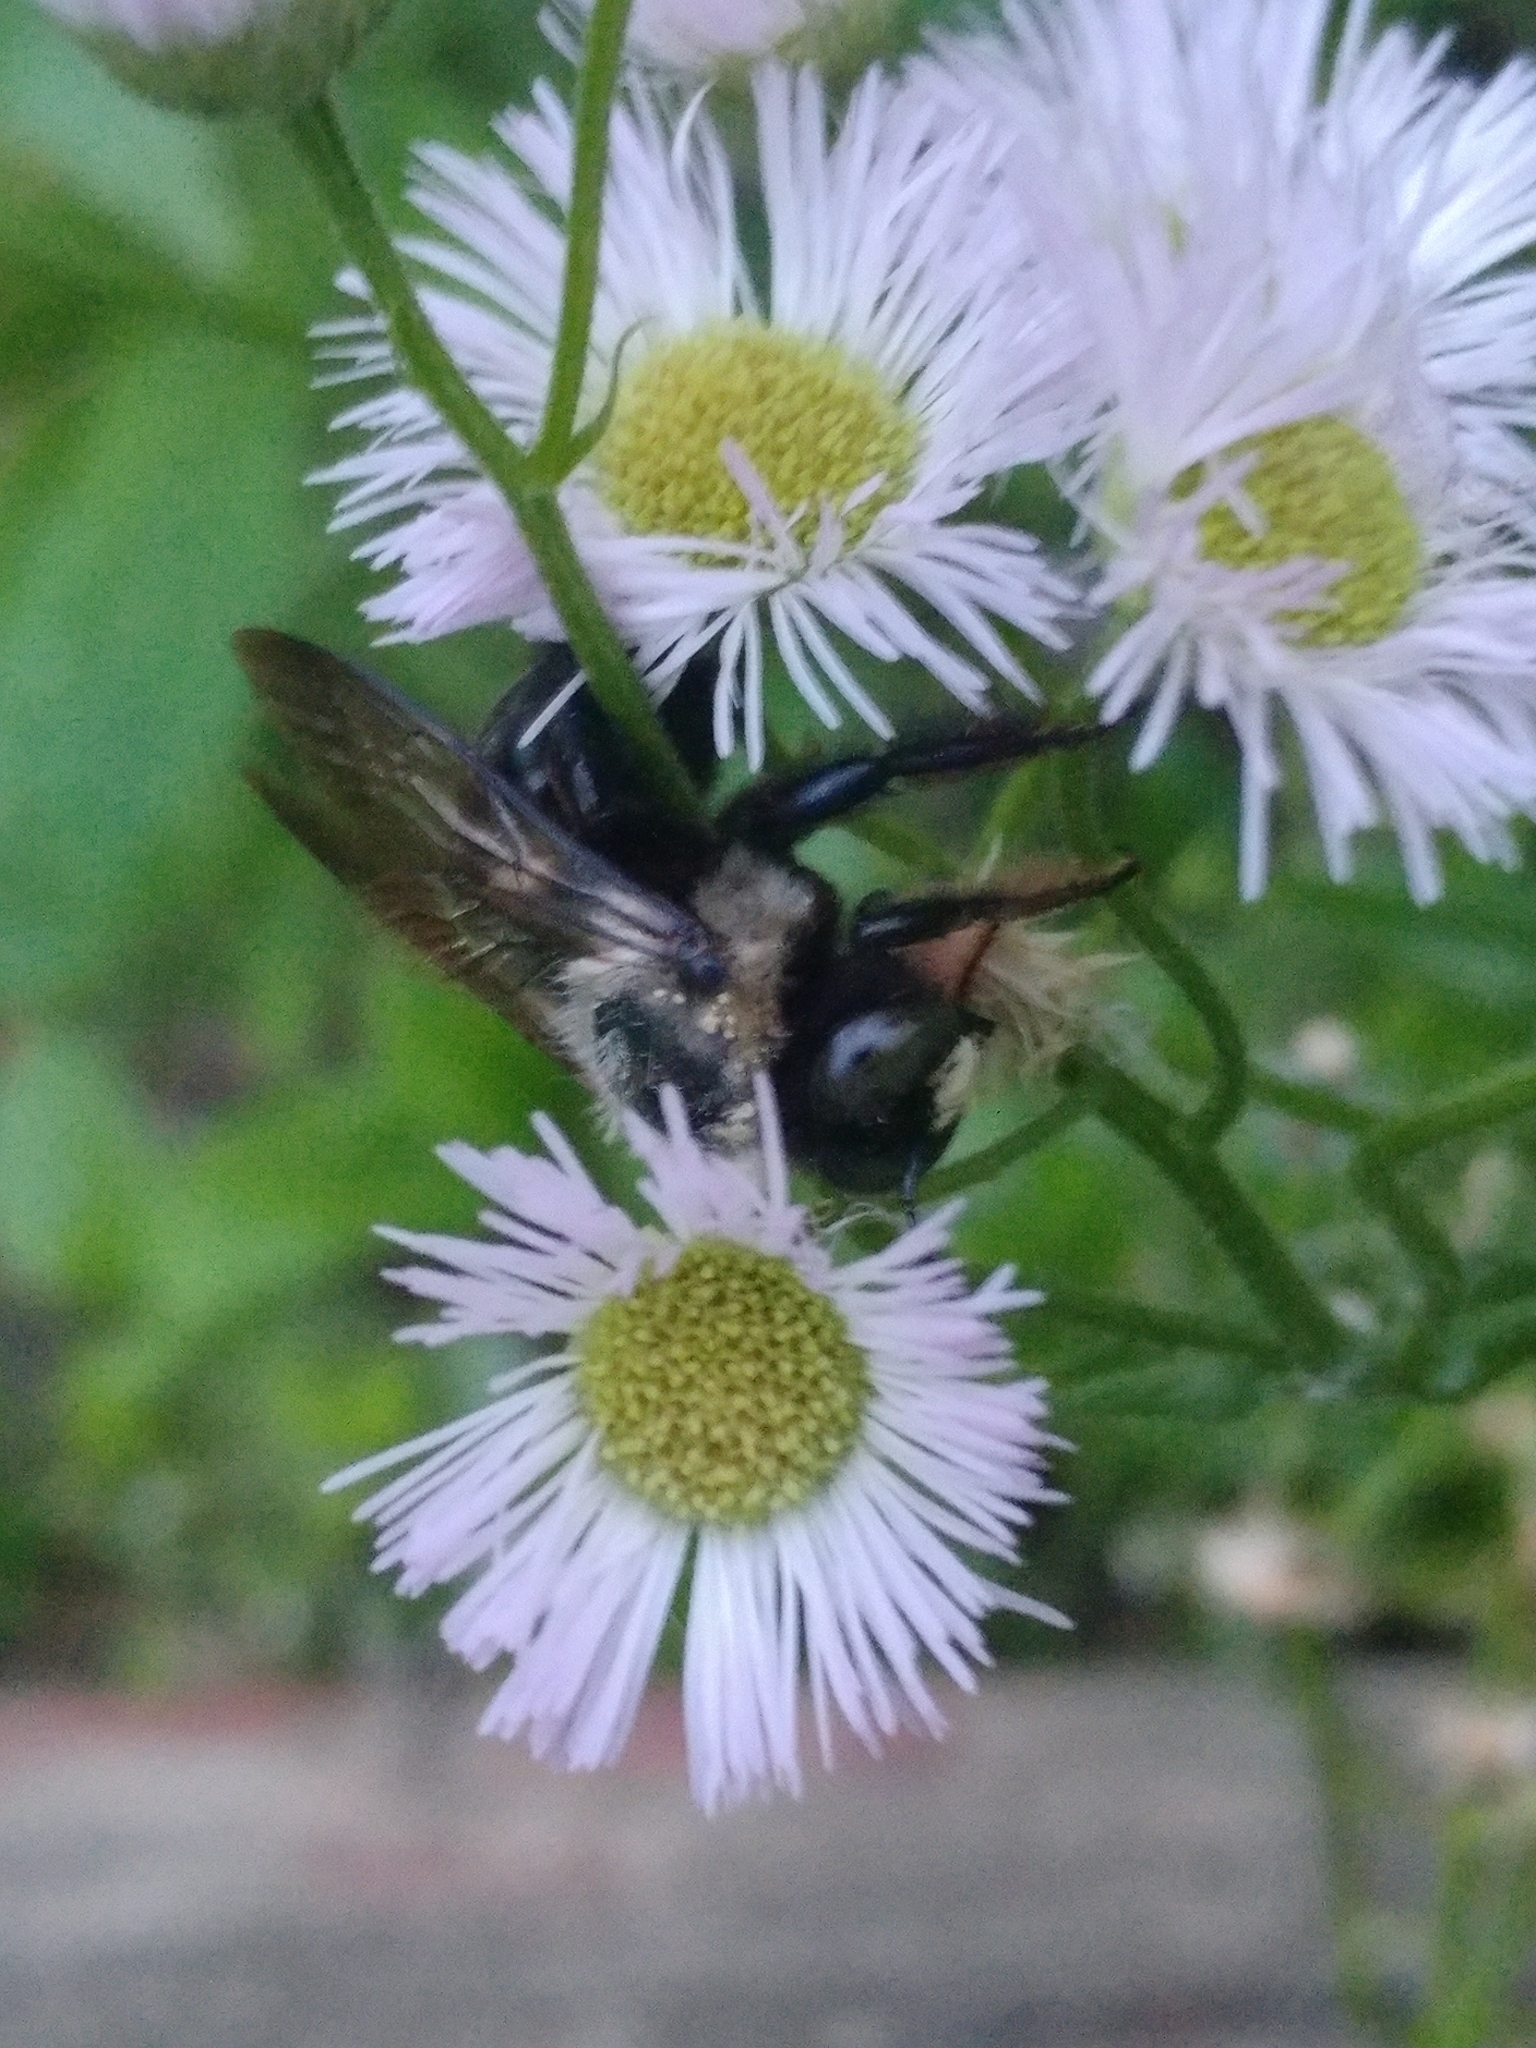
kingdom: Animalia
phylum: Arthropoda
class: Insecta
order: Hymenoptera
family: Apidae
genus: Xylocopa
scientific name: Xylocopa virginica
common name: Carpenter bee
